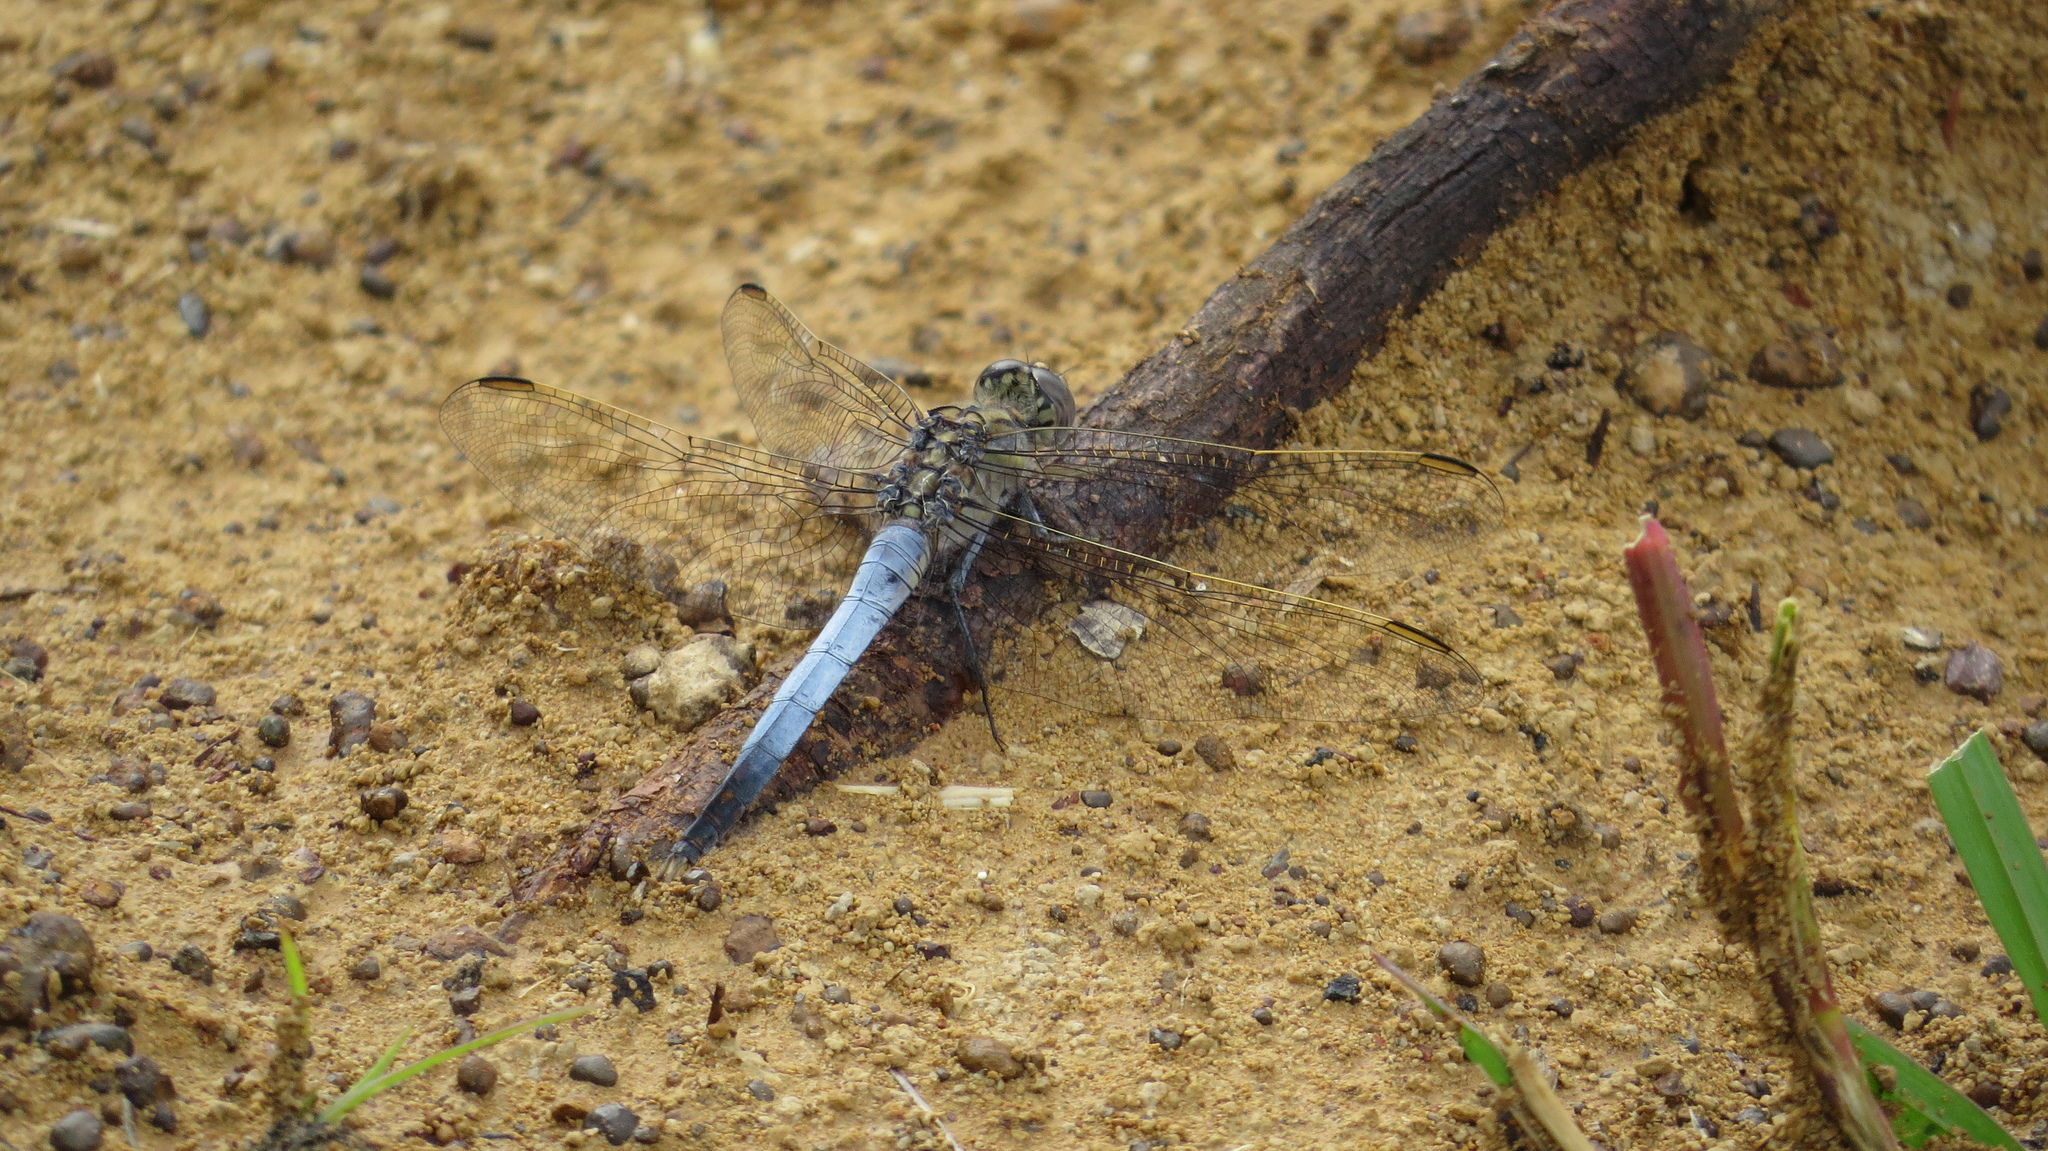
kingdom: Animalia
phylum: Arthropoda
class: Insecta
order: Odonata
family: Libellulidae
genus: Orthetrum
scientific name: Orthetrum caledonicum
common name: Blue skimmer
